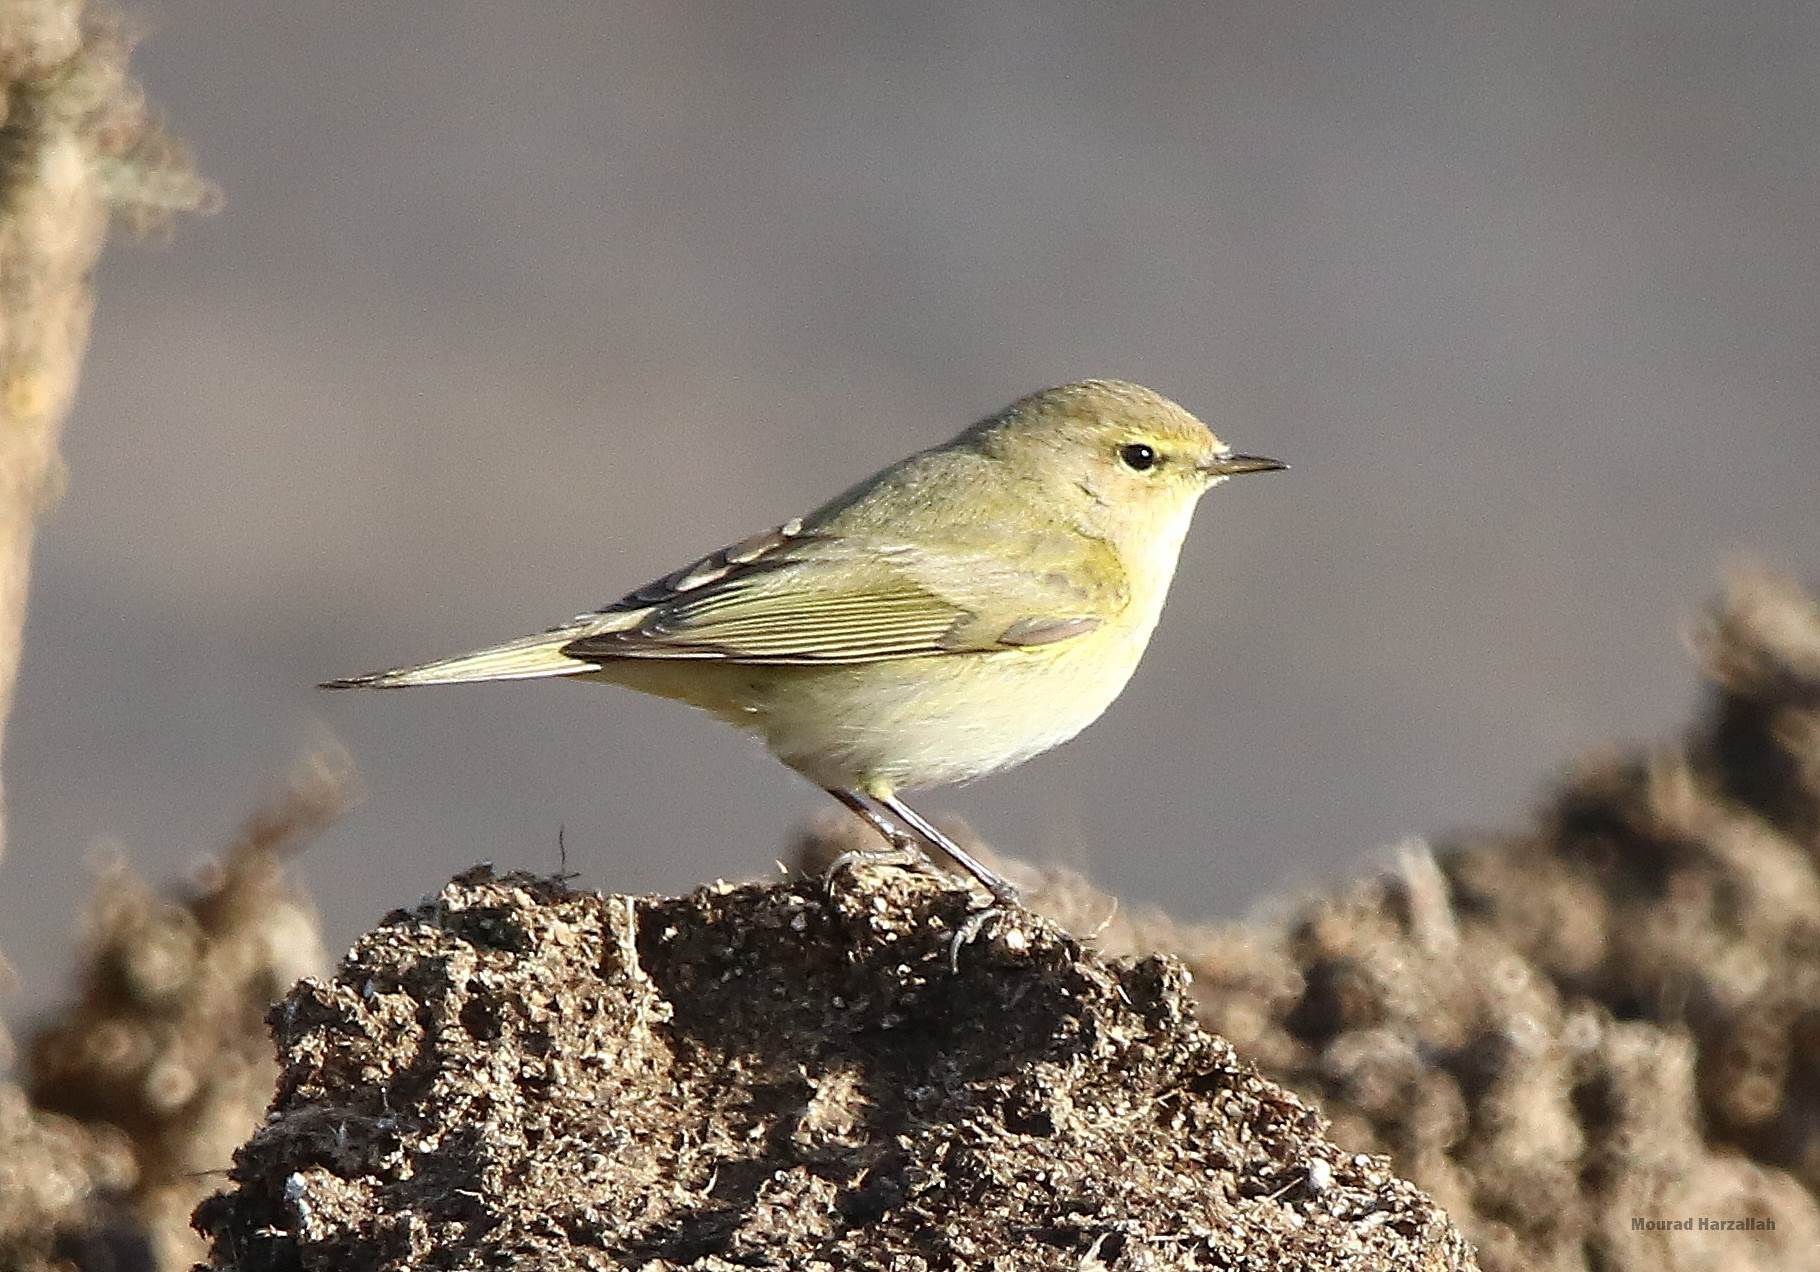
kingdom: Animalia
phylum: Chordata
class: Aves
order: Passeriformes
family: Phylloscopidae
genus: Phylloscopus
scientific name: Phylloscopus sibillatrix
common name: Wood warbler
